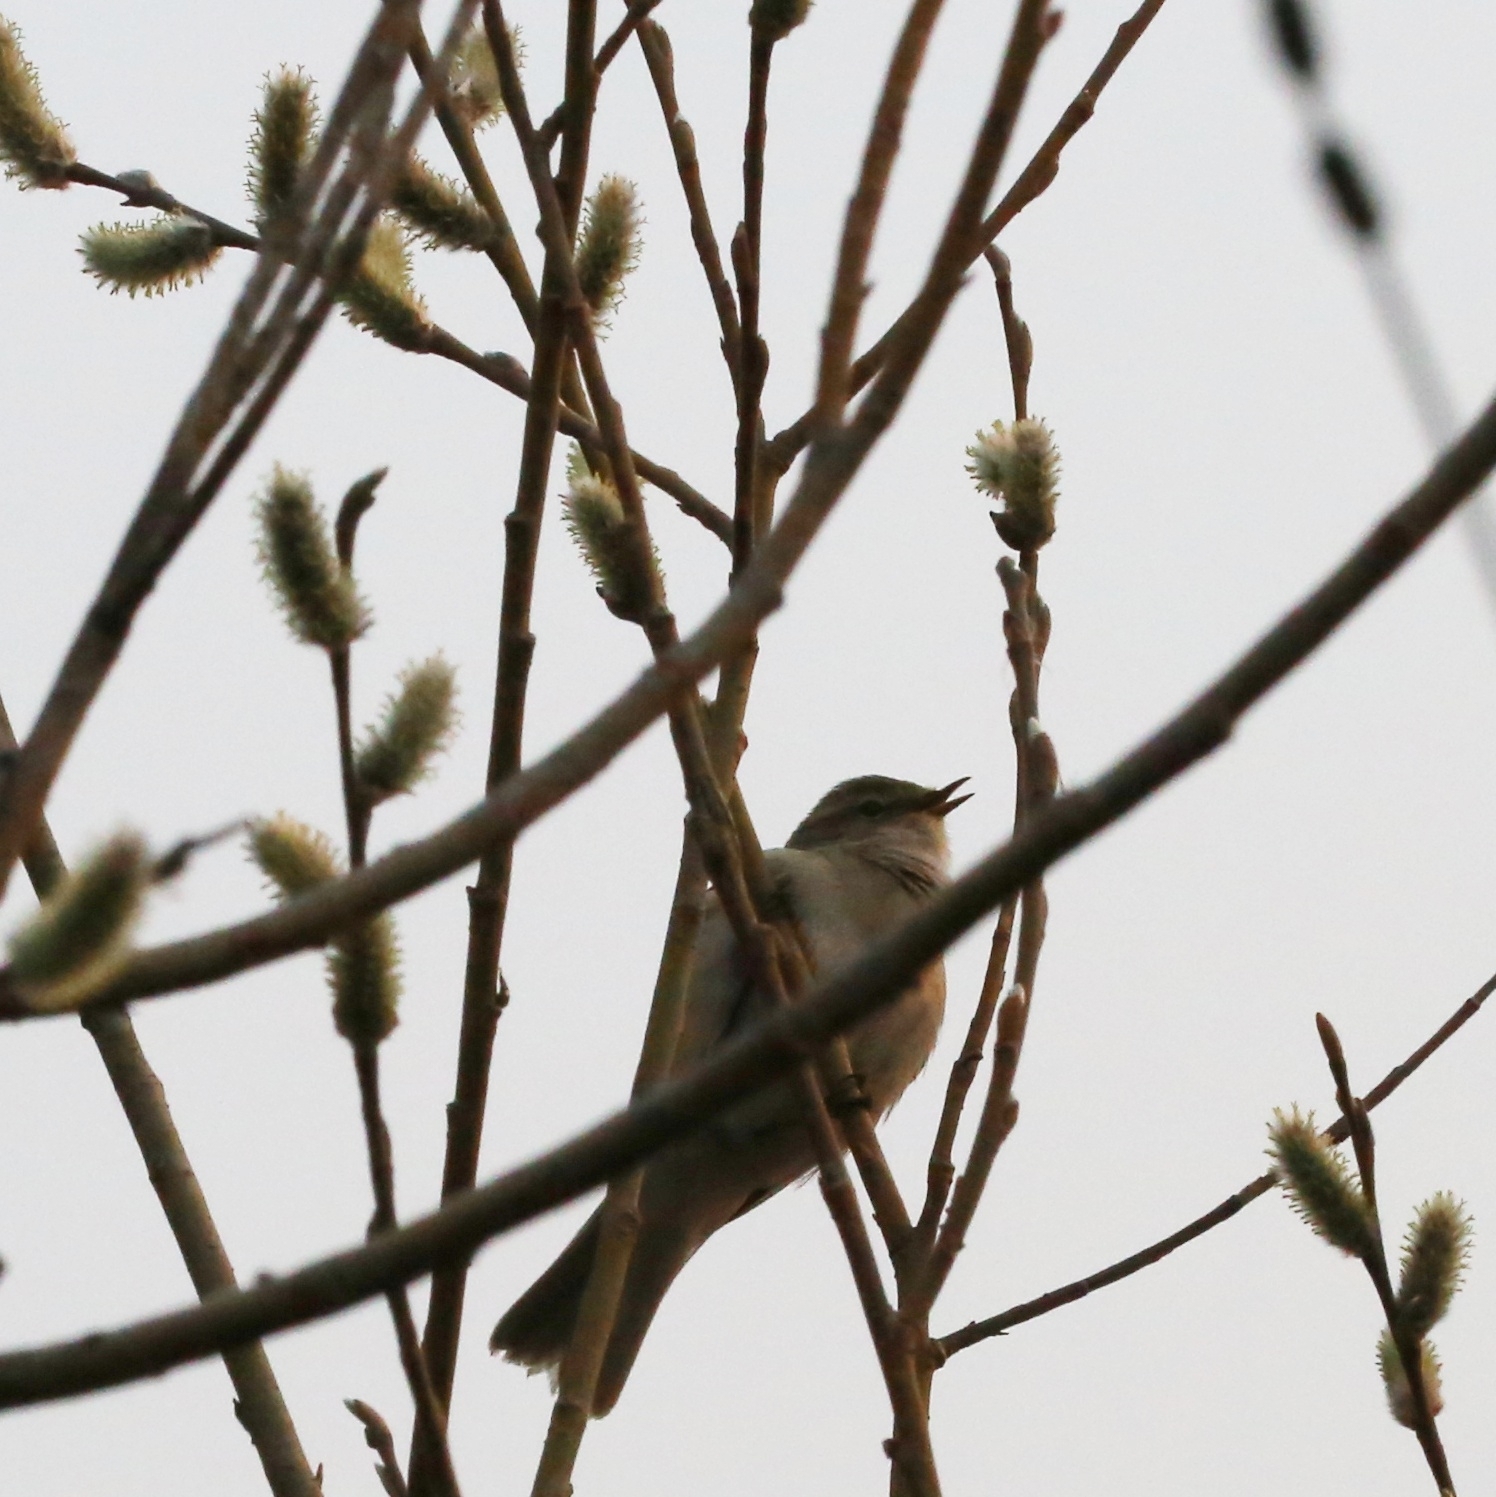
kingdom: Animalia
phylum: Chordata
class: Aves
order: Passeriformes
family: Phylloscopidae
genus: Phylloscopus
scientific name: Phylloscopus collybita
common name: Common chiffchaff
